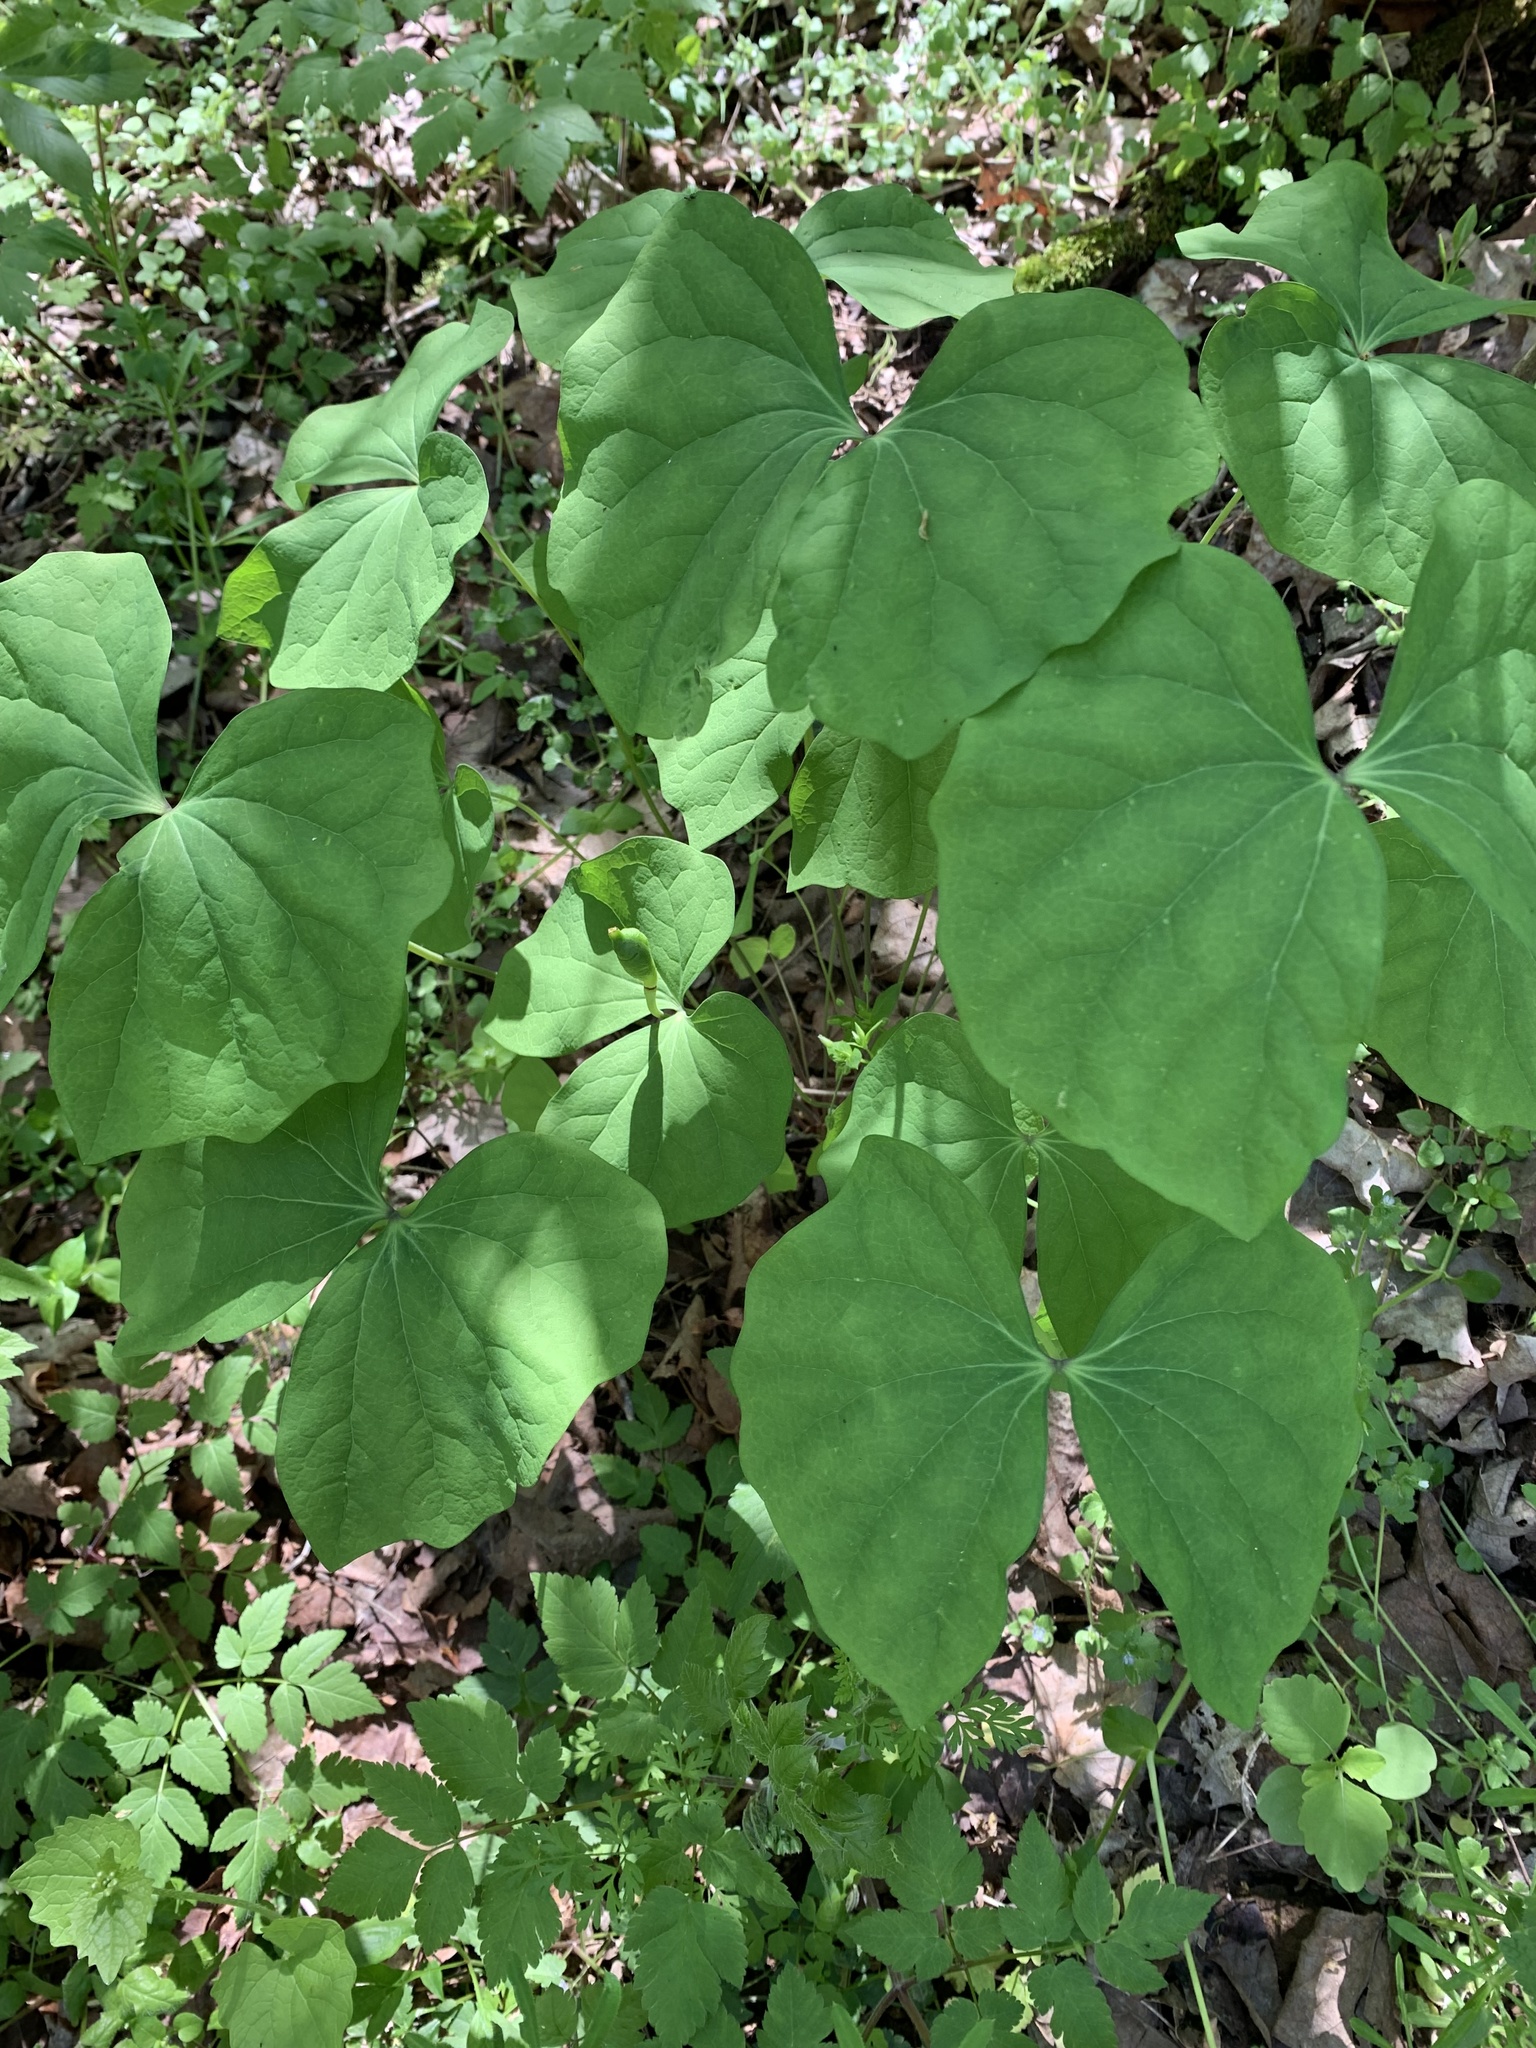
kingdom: Plantae
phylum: Tracheophyta
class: Magnoliopsida
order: Ranunculales
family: Berberidaceae
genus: Jeffersonia
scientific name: Jeffersonia diphylla
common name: Rheumatism-root
